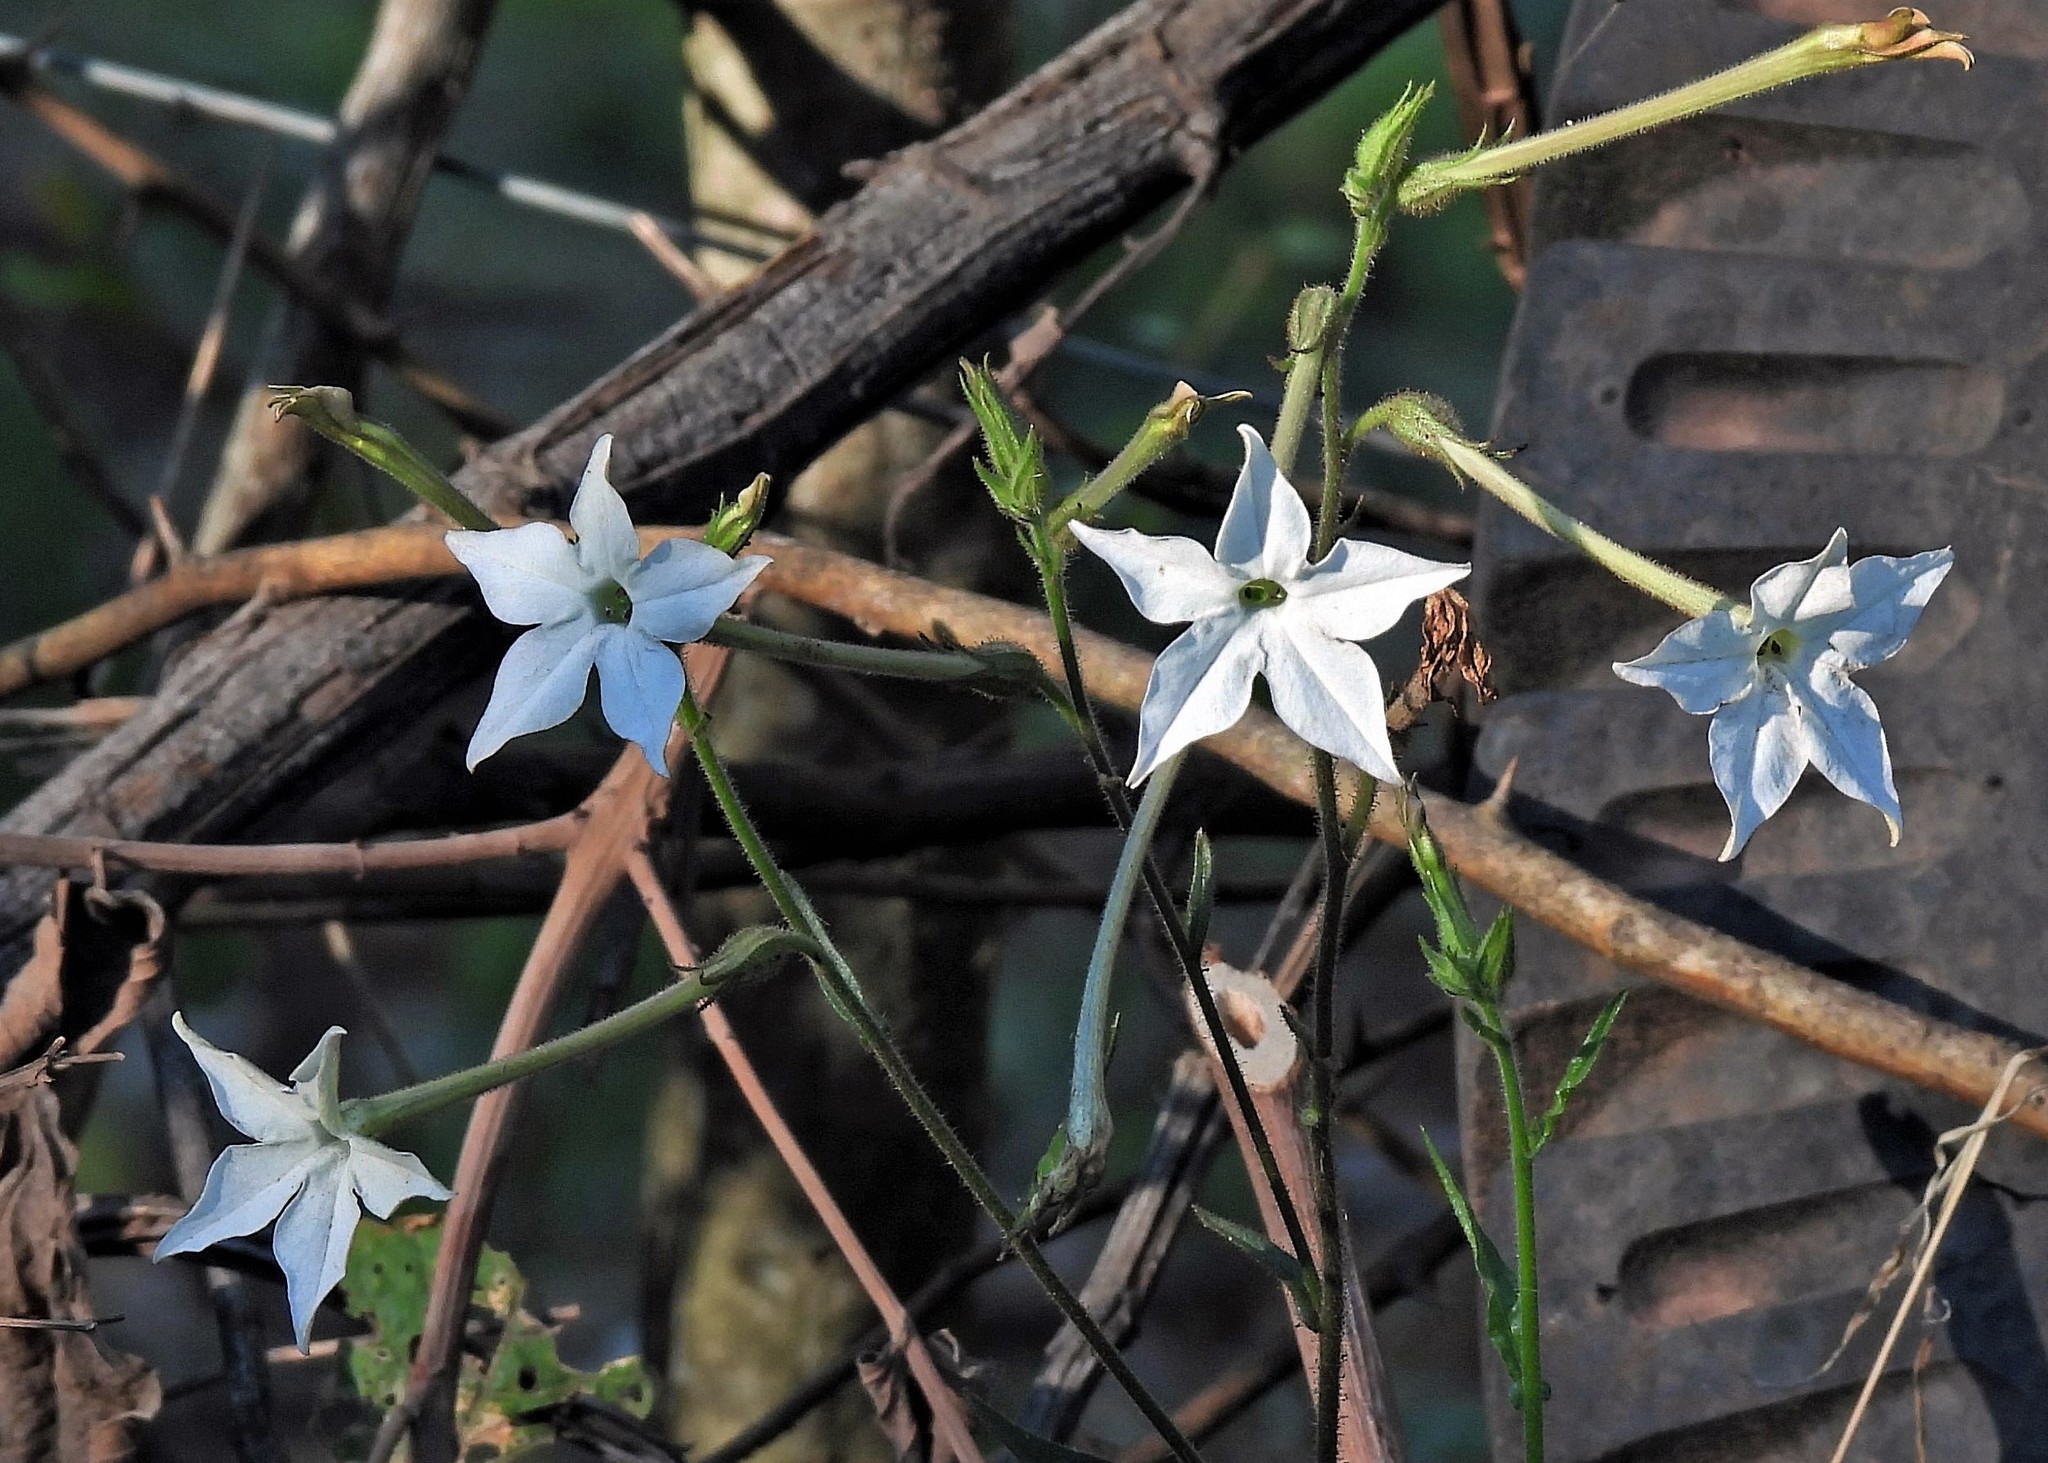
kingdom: Plantae
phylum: Tracheophyta
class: Magnoliopsida
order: Solanales
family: Solanaceae
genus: Nicotiana
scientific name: Nicotiana longiflora
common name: Long-flowered tobacco
